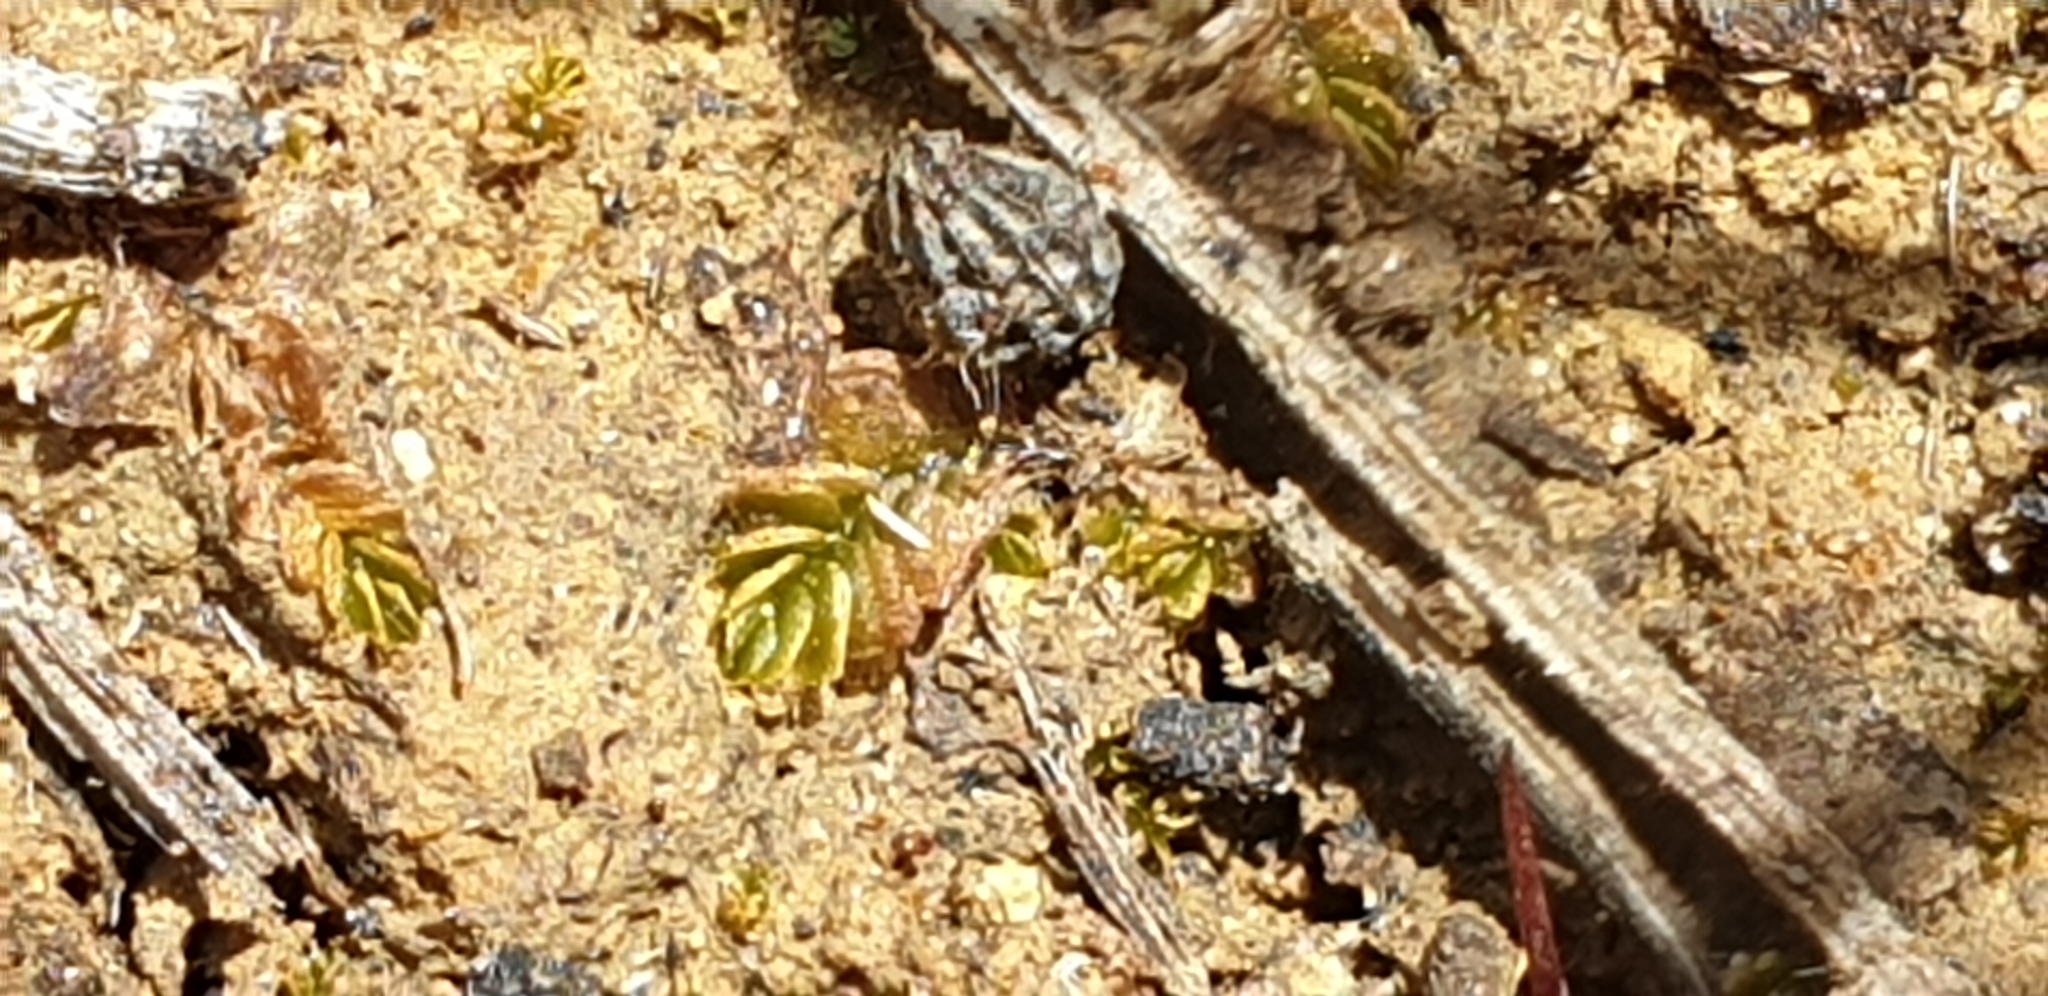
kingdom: Plantae
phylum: Marchantiophyta
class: Jungermanniopsida
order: Jungermanniales
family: Acrobolbaceae
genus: Lethocolea
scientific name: Lethocolea pansa
